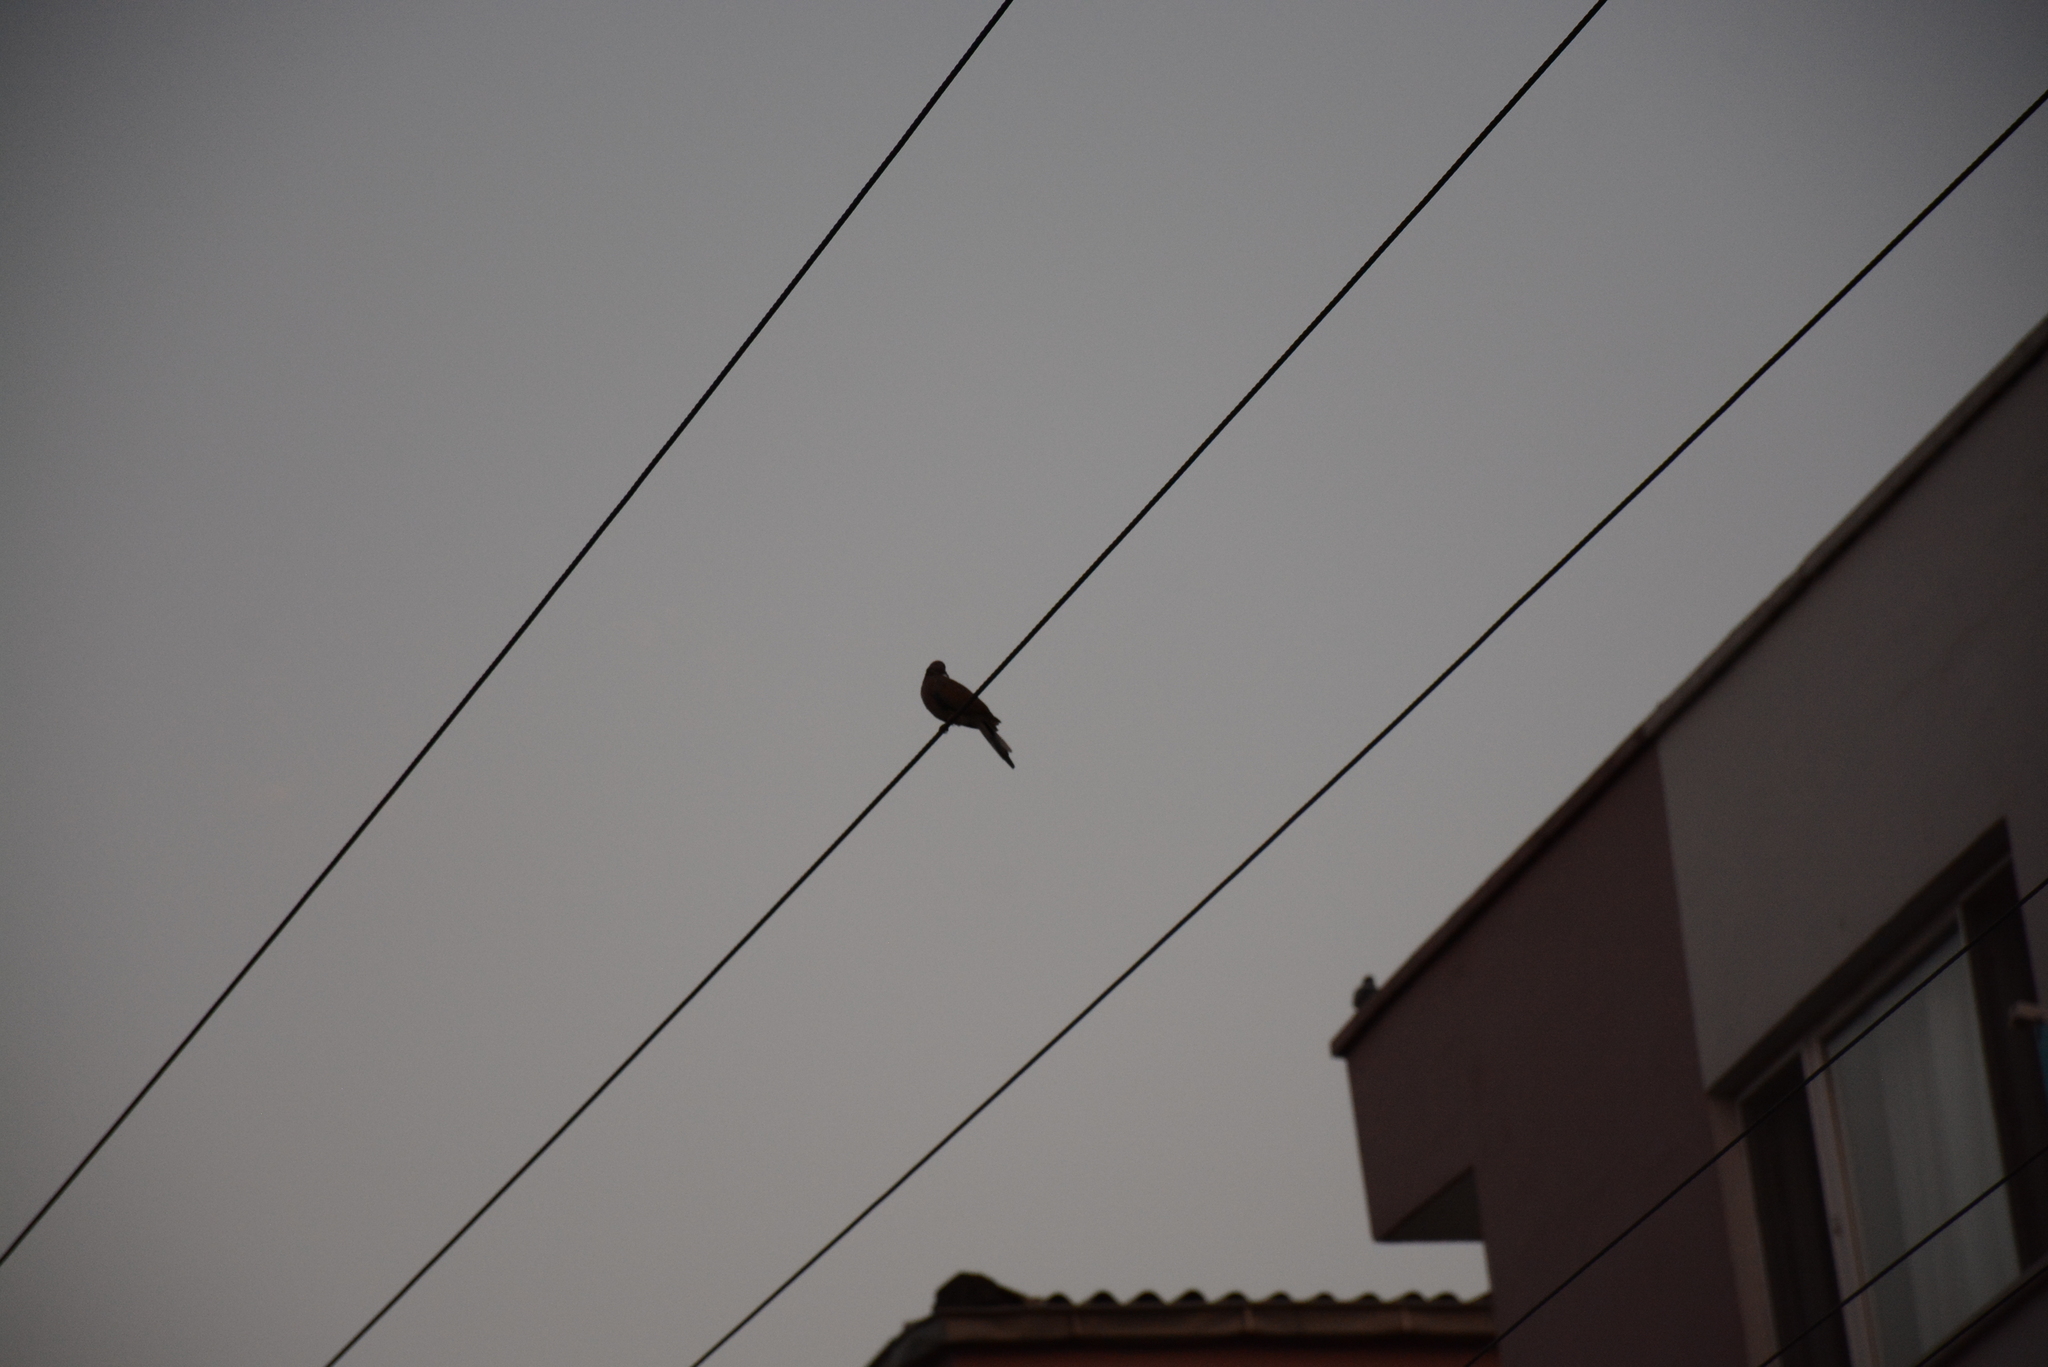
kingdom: Animalia
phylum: Chordata
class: Aves
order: Columbiformes
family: Columbidae
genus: Spilopelia
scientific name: Spilopelia senegalensis
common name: Laughing dove
